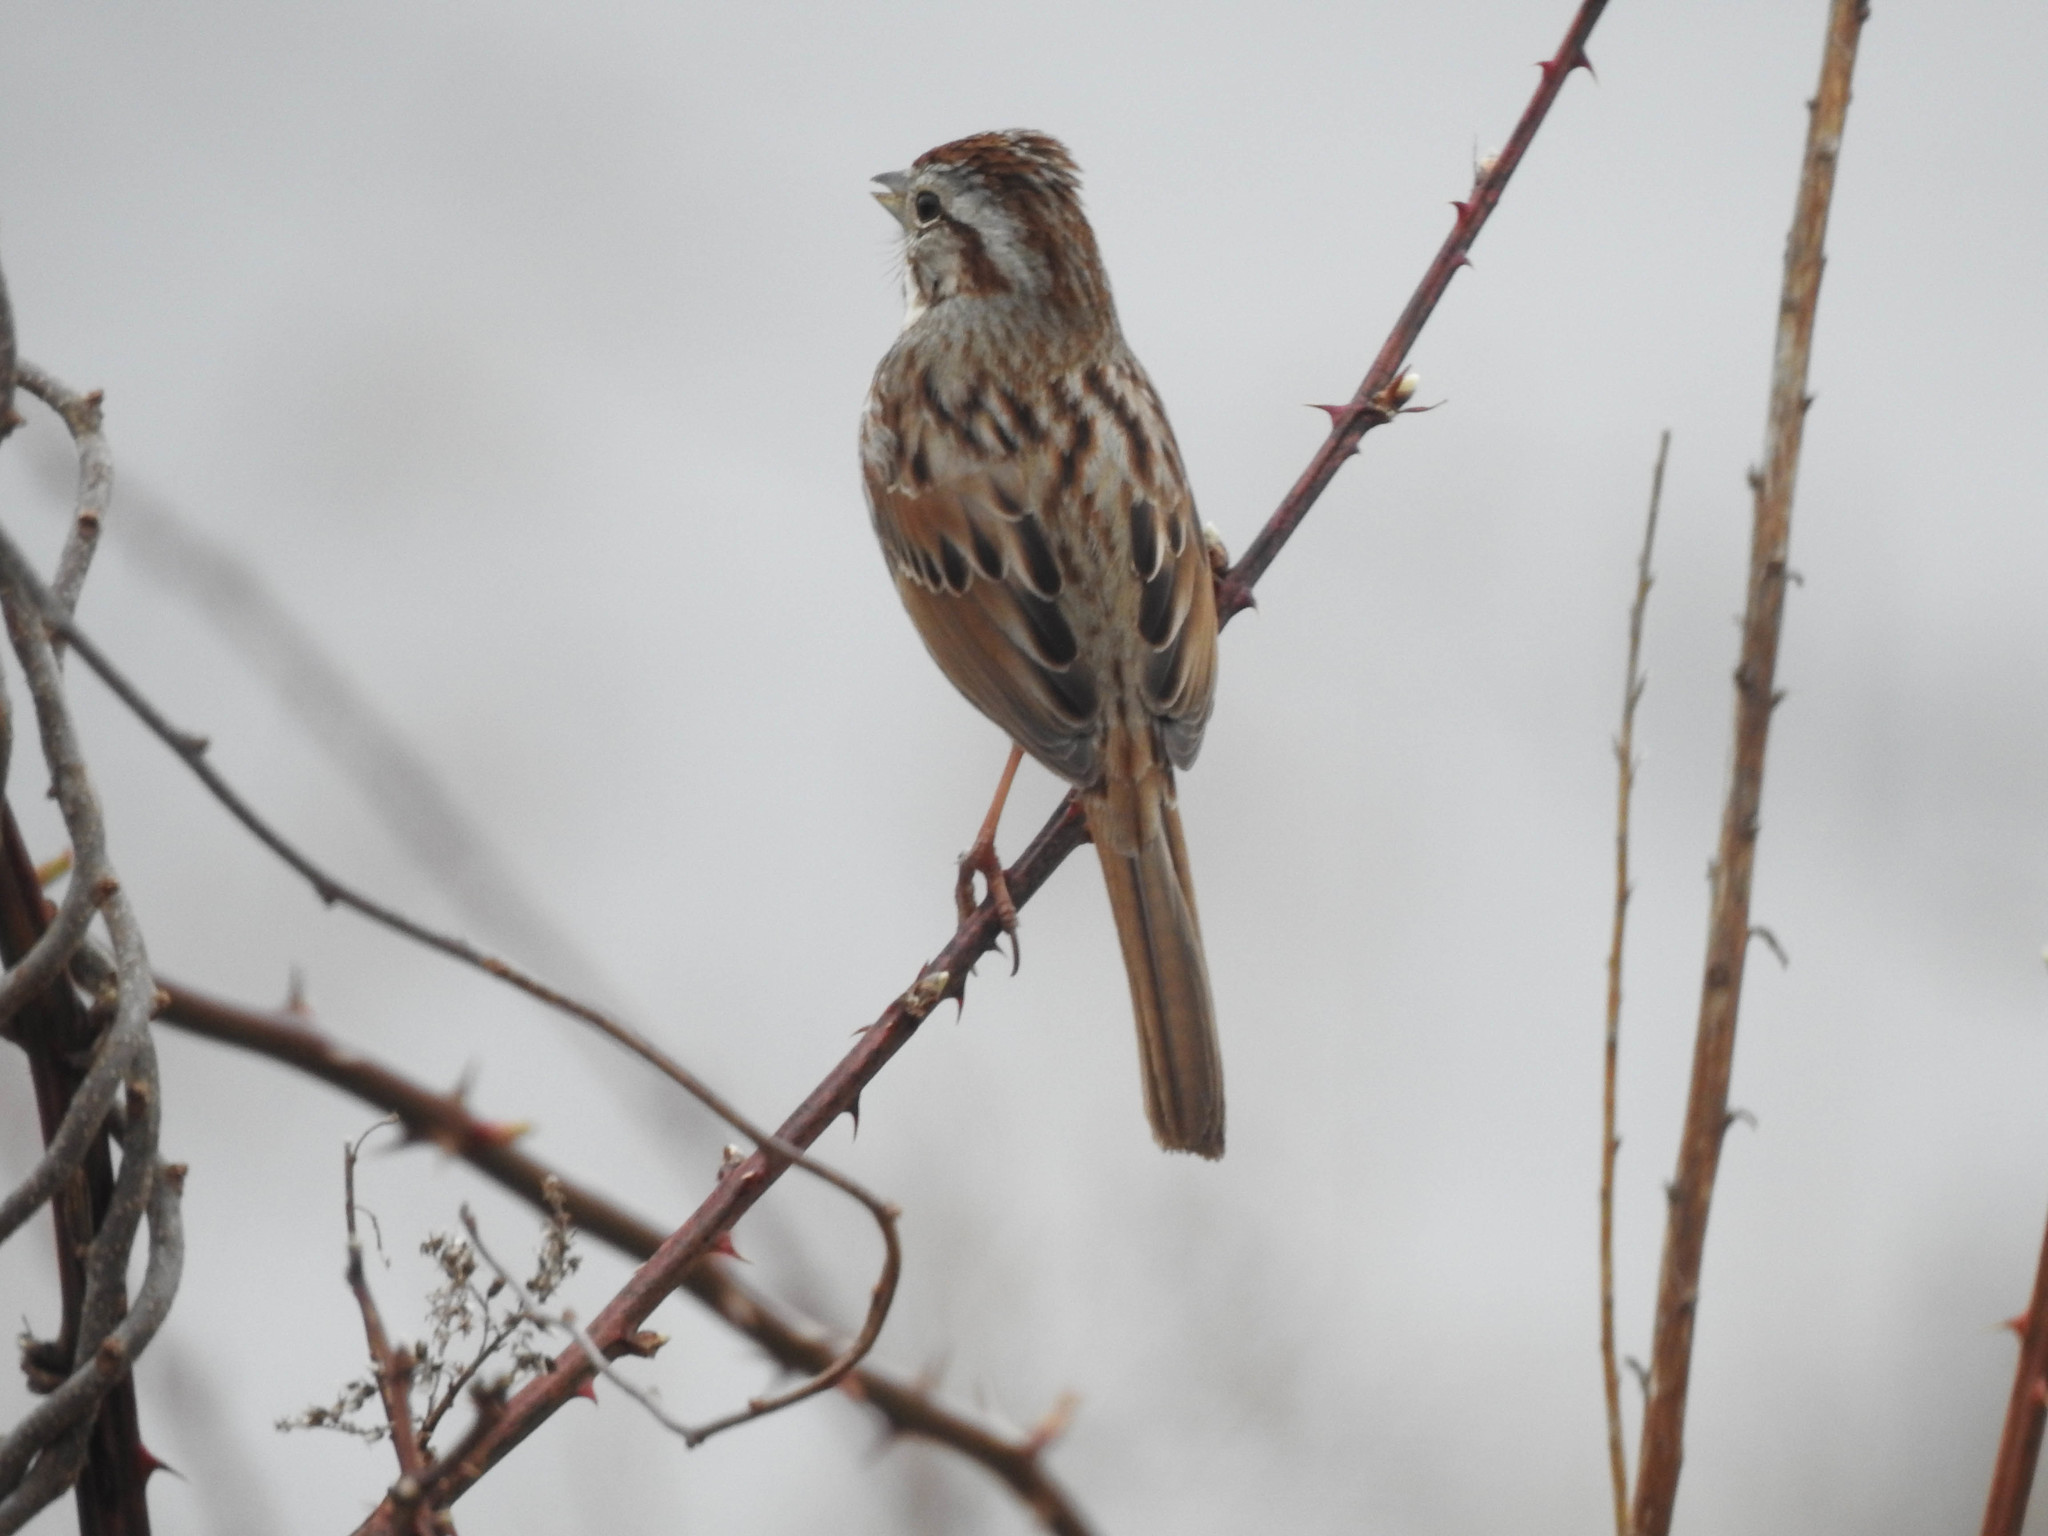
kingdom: Animalia
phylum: Chordata
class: Aves
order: Passeriformes
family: Passerellidae
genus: Melospiza
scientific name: Melospiza melodia
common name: Song sparrow
